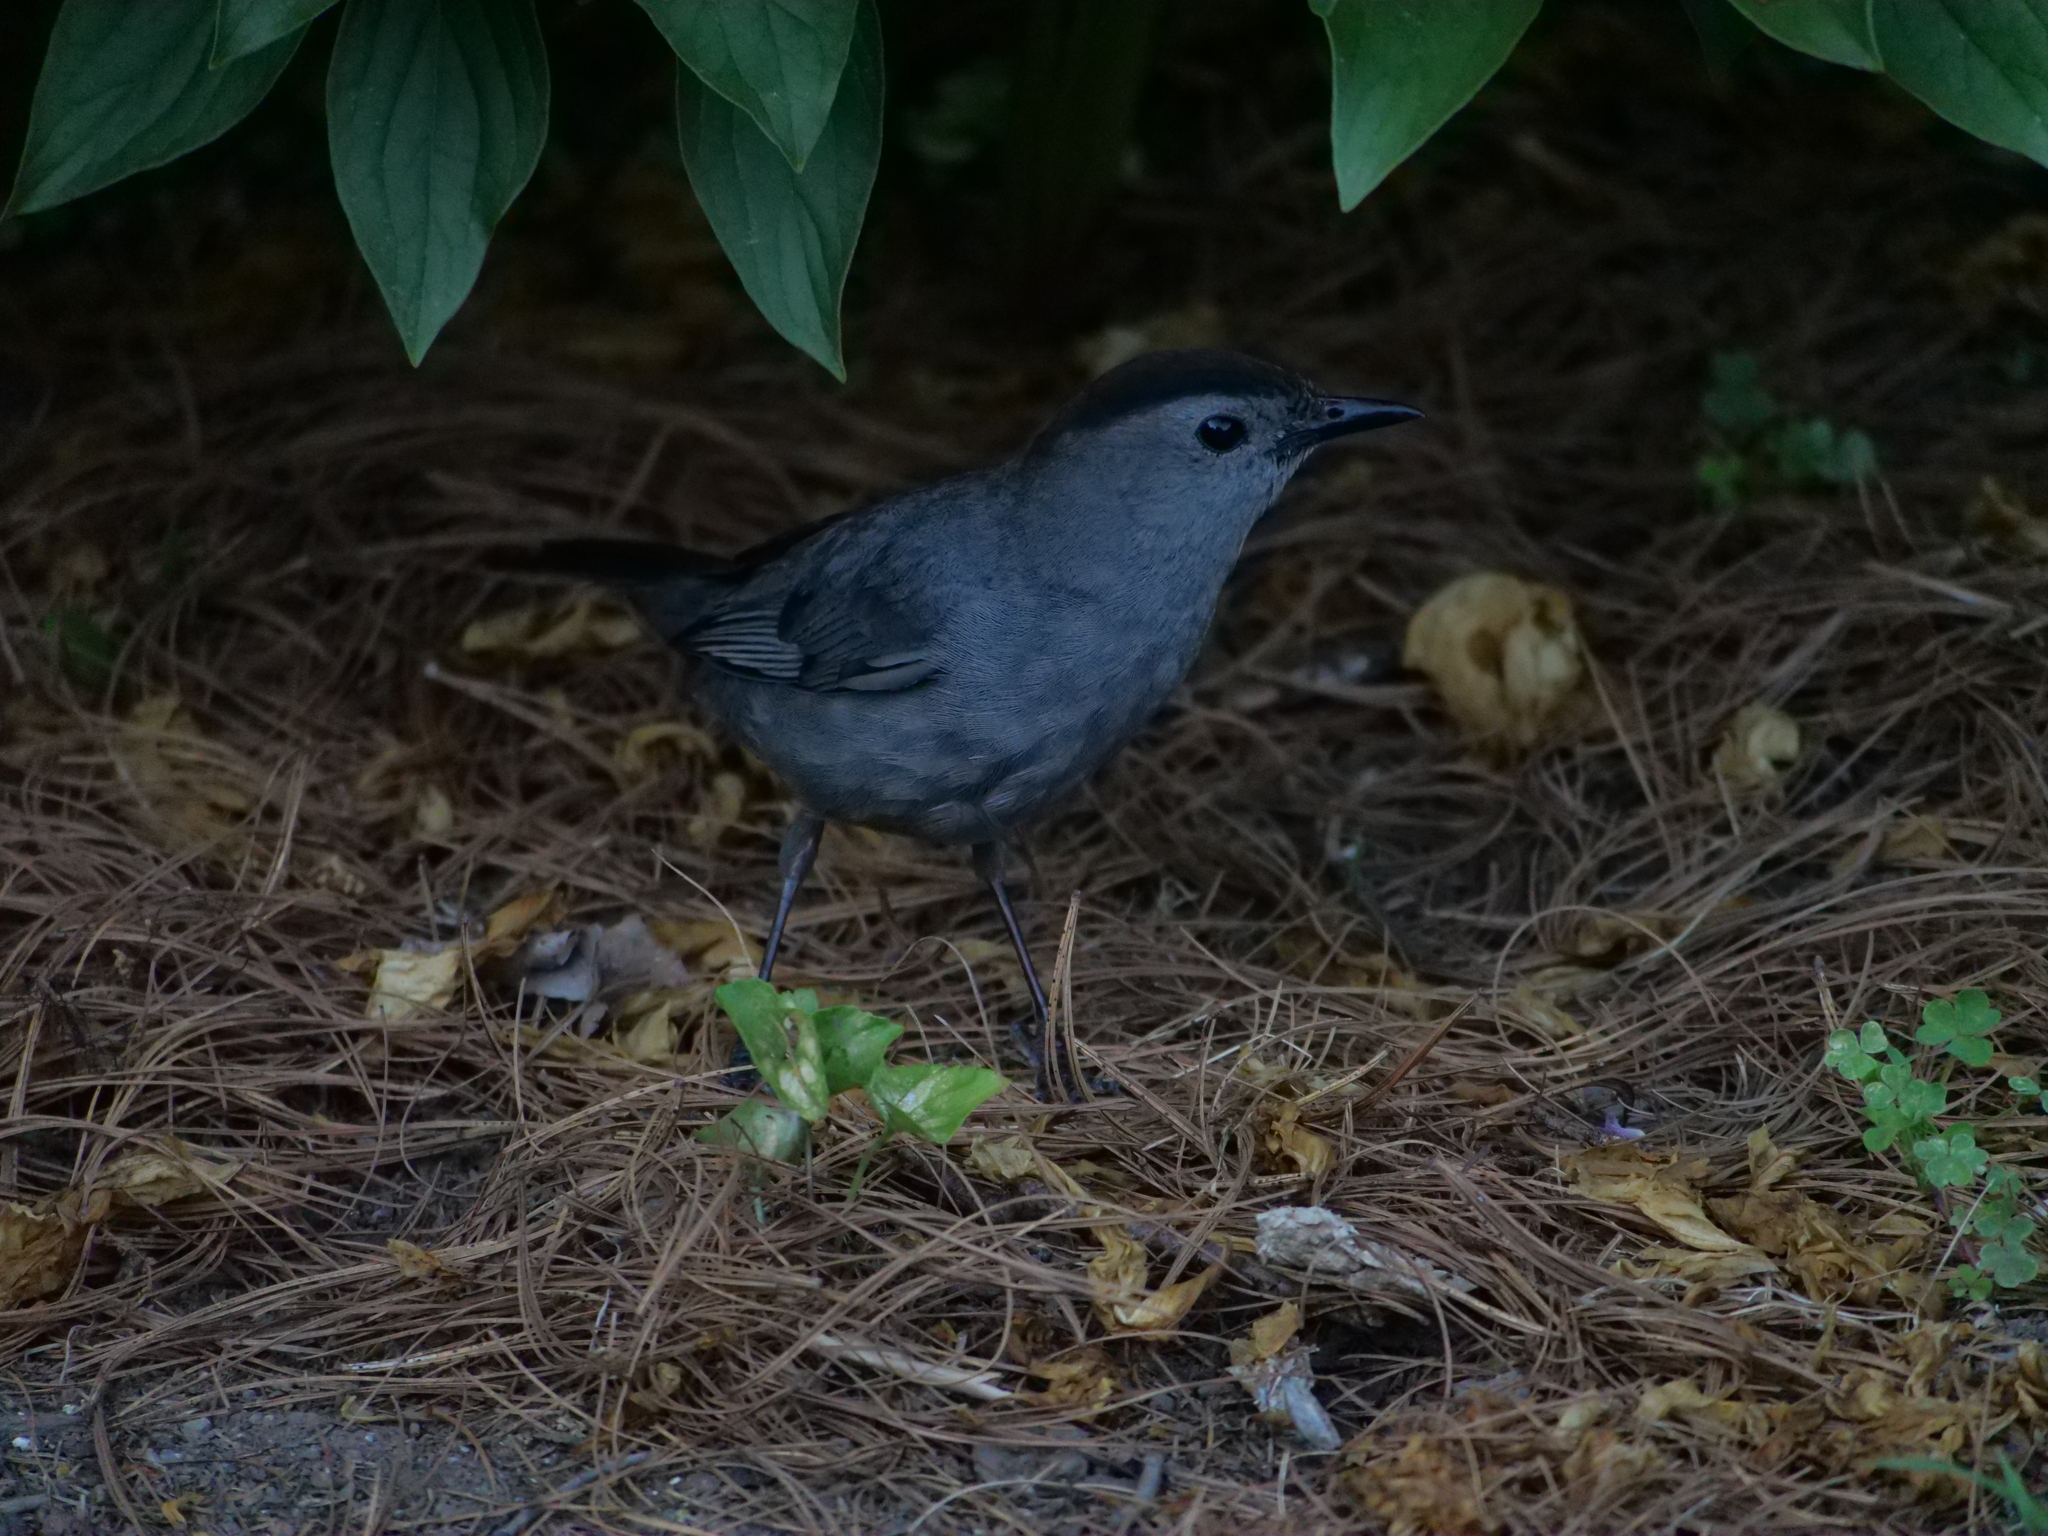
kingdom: Animalia
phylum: Chordata
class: Aves
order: Passeriformes
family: Mimidae
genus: Dumetella
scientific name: Dumetella carolinensis
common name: Gray catbird
